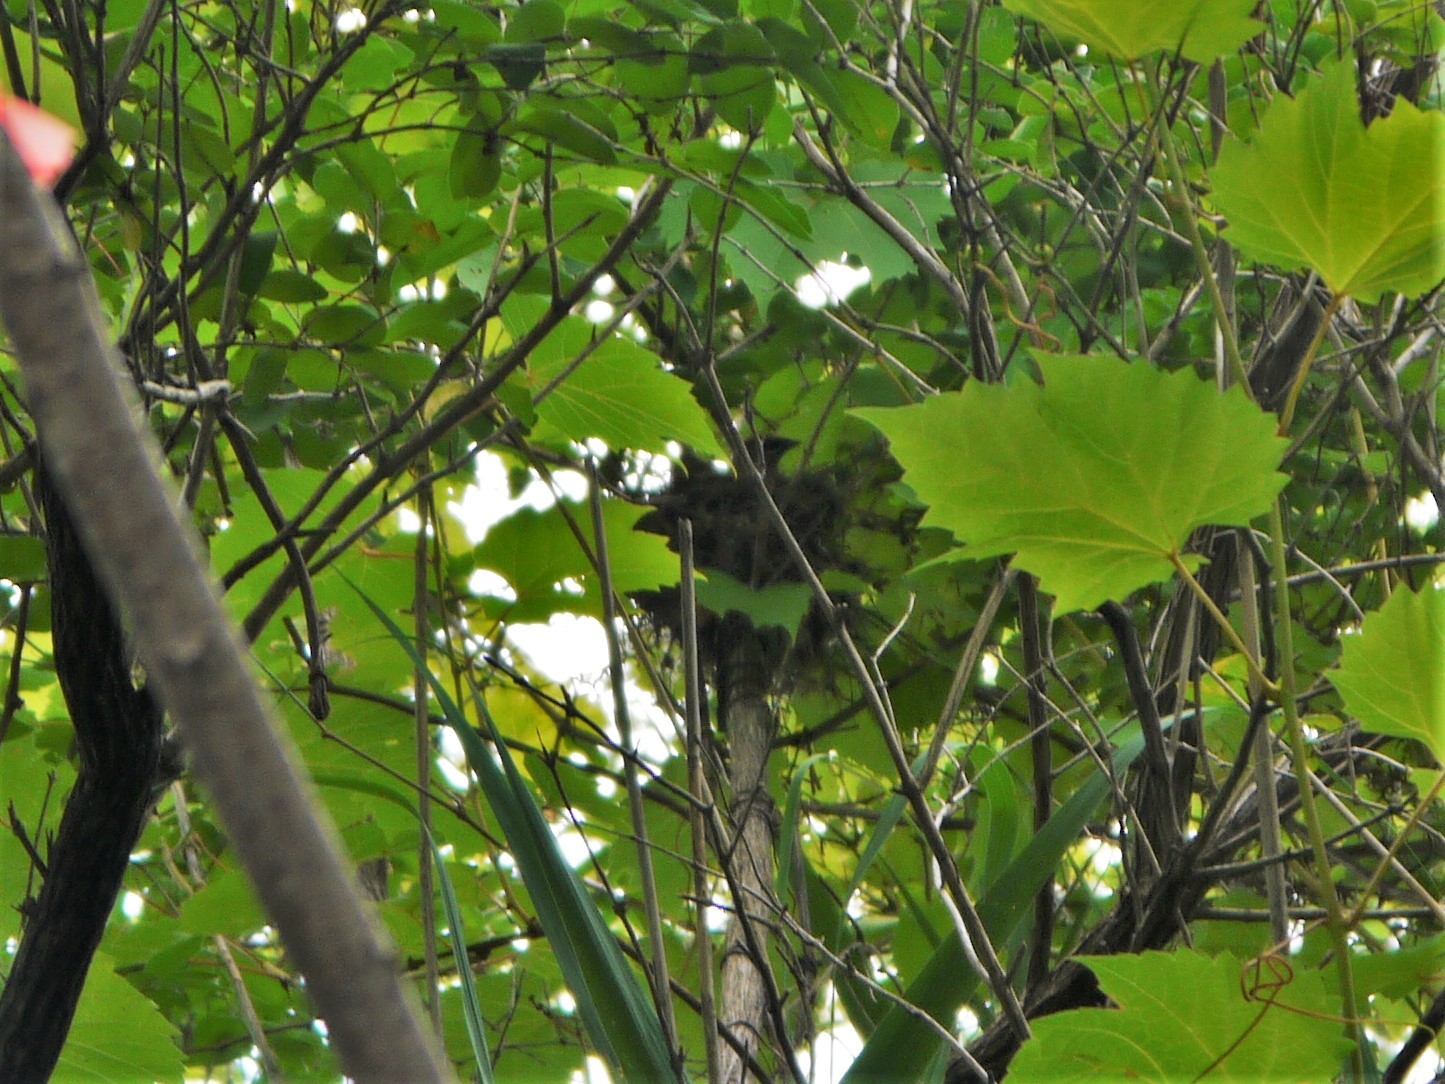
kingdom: Animalia
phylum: Chordata
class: Aves
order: Passeriformes
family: Bombycillidae
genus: Bombycilla
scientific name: Bombycilla cedrorum
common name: Cedar waxwing
